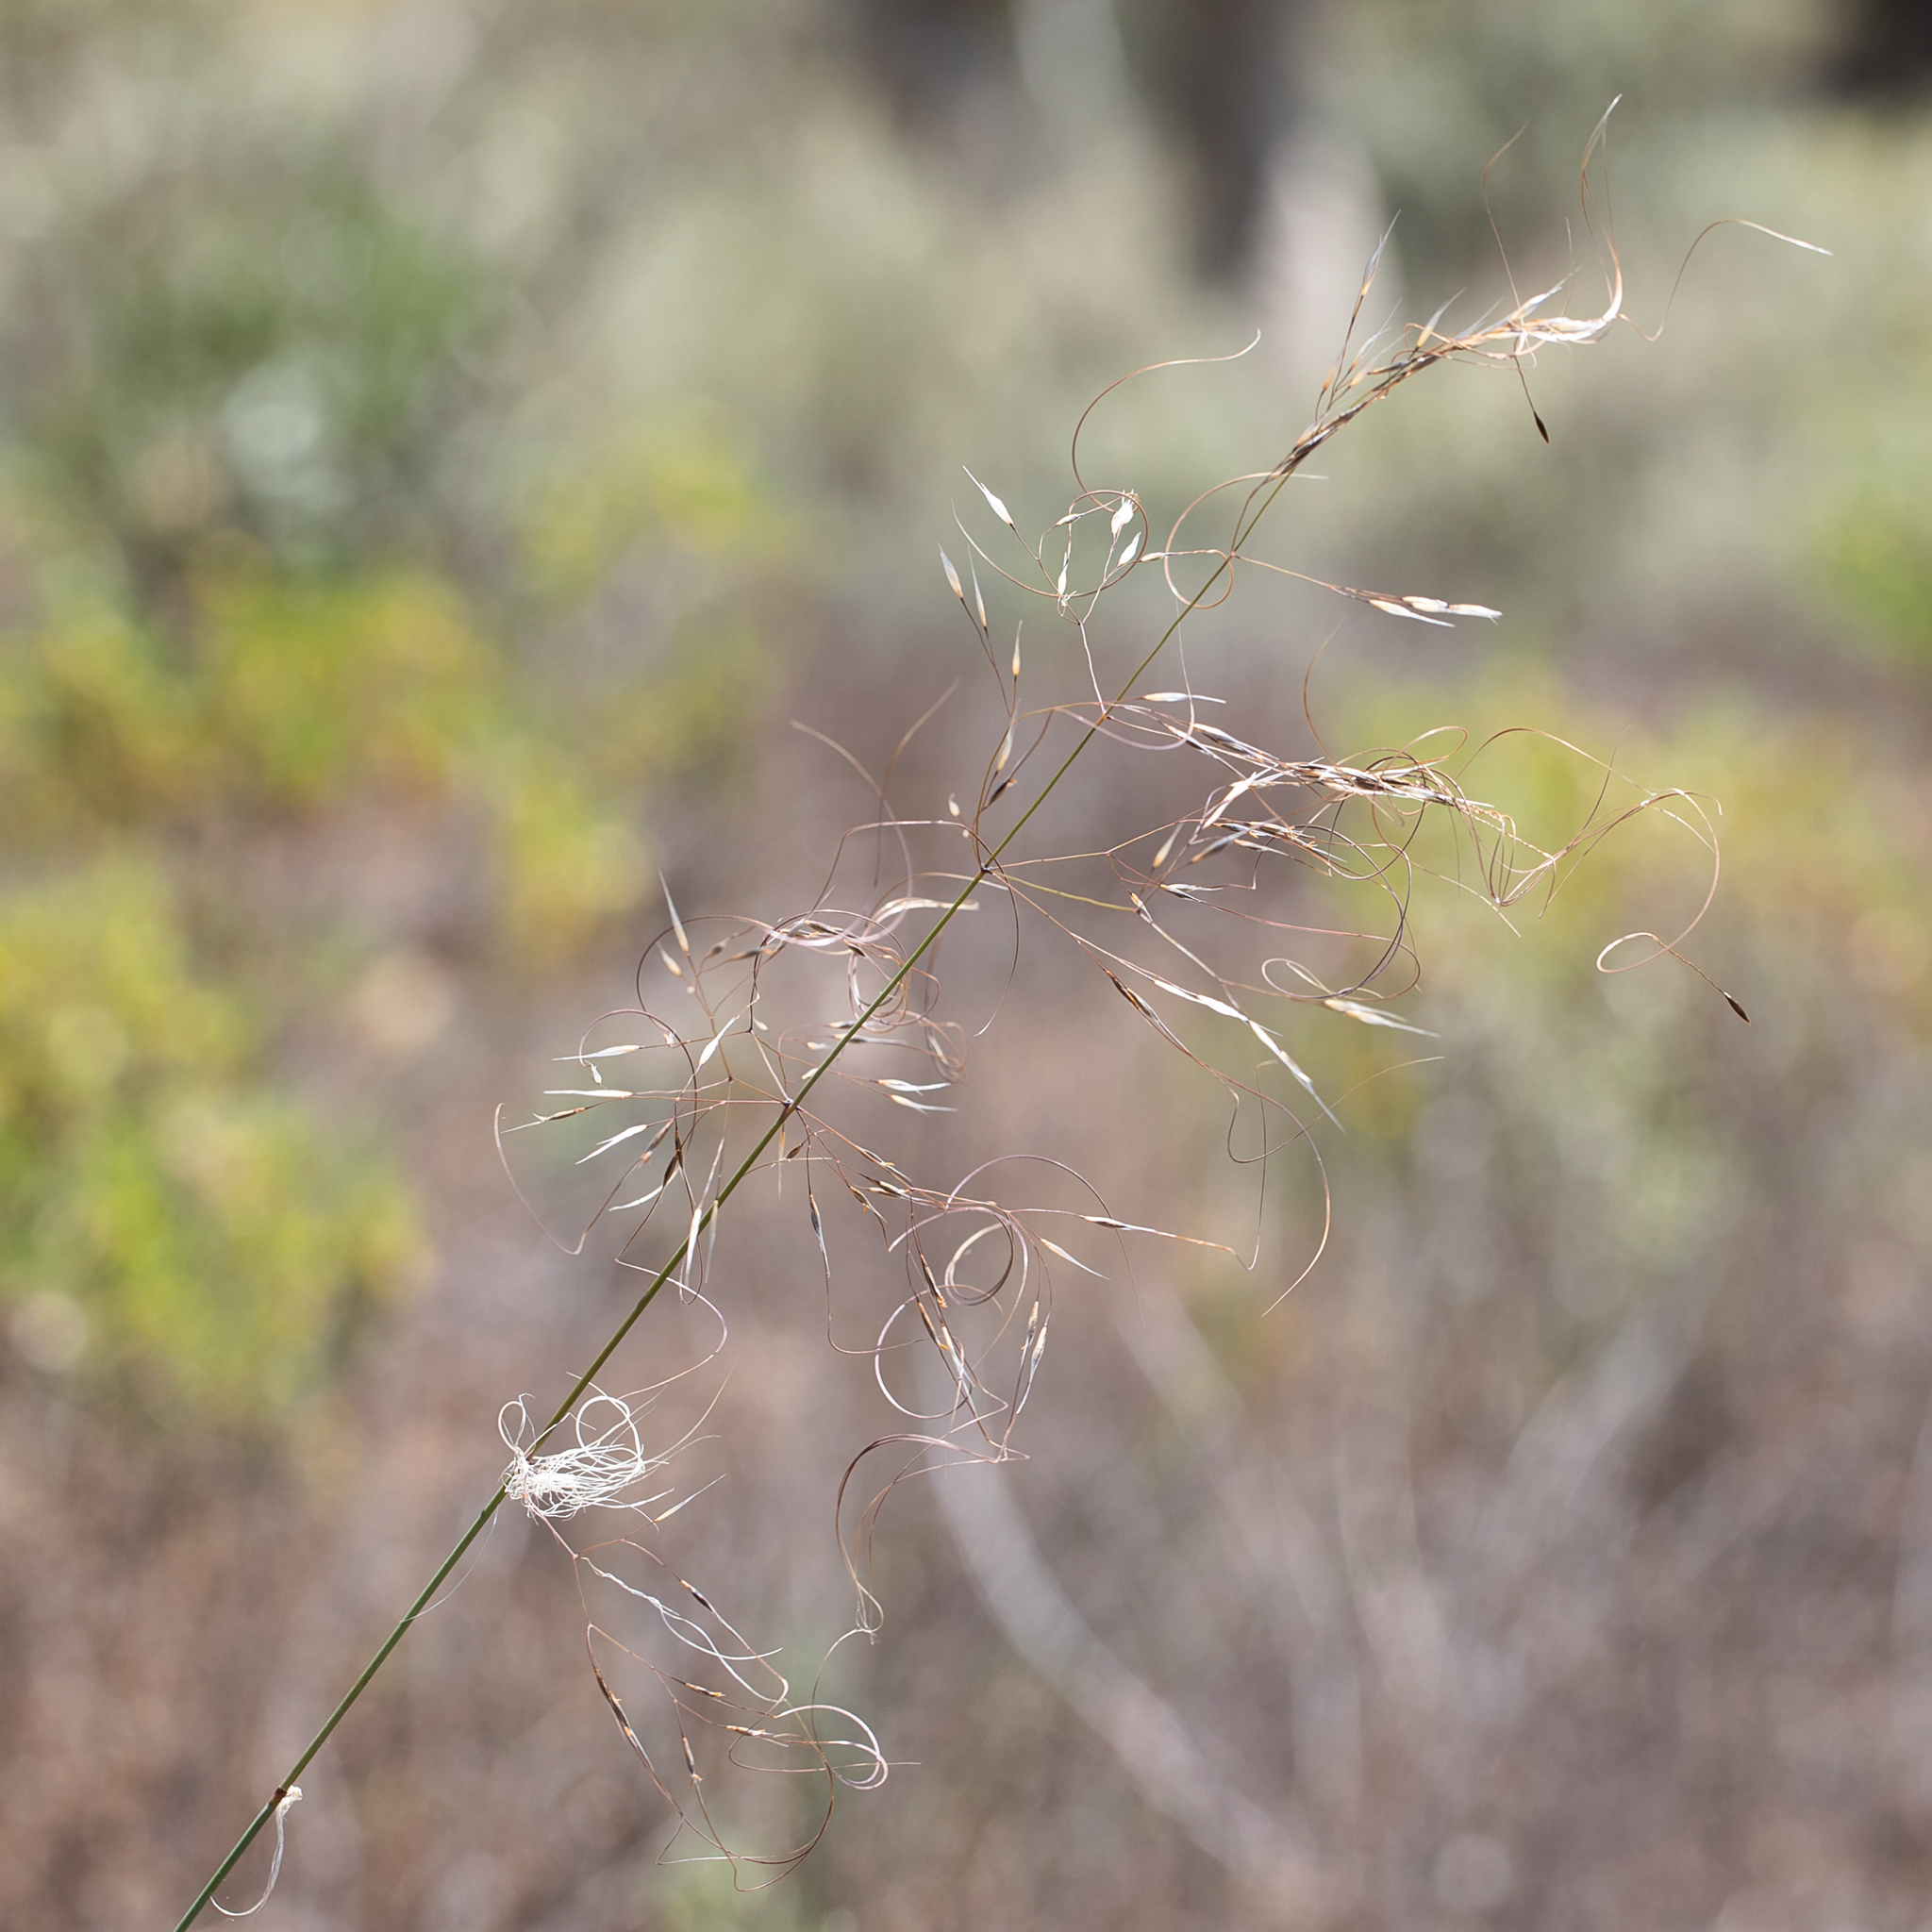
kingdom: Plantae
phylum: Tracheophyta
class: Liliopsida
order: Poales
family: Poaceae
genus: Austrostipa
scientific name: Austrostipa platychaeta
